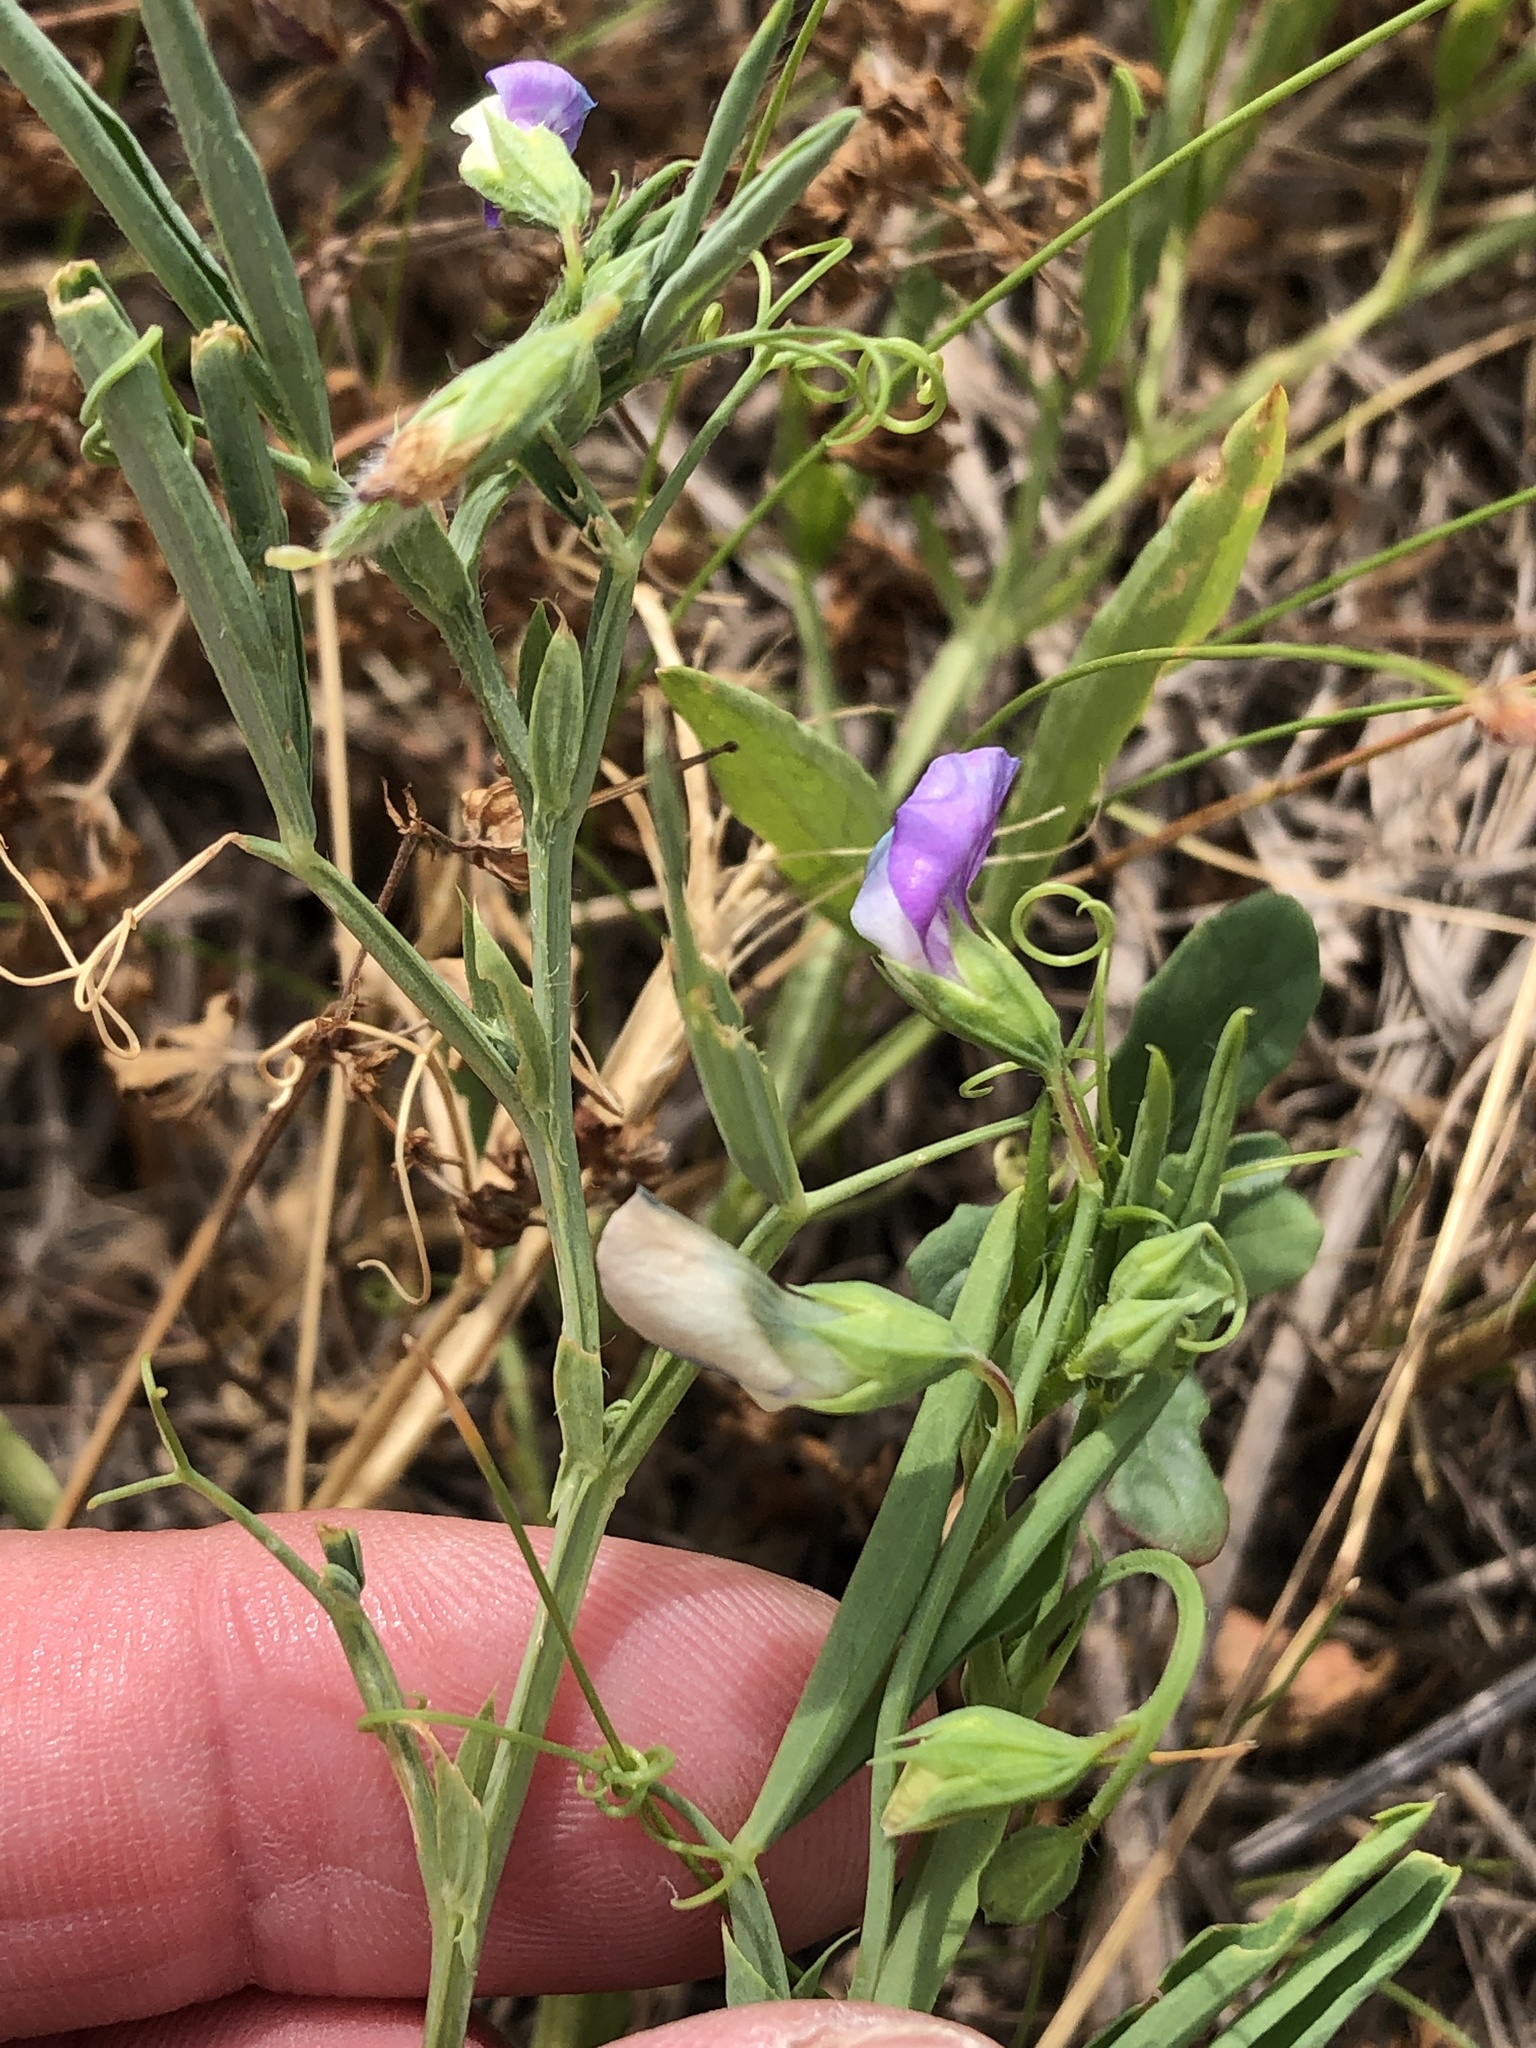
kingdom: Plantae
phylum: Tracheophyta
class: Magnoliopsida
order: Fabales
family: Fabaceae
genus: Lathyrus
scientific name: Lathyrus hirsutus
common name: Hairy vetchling
